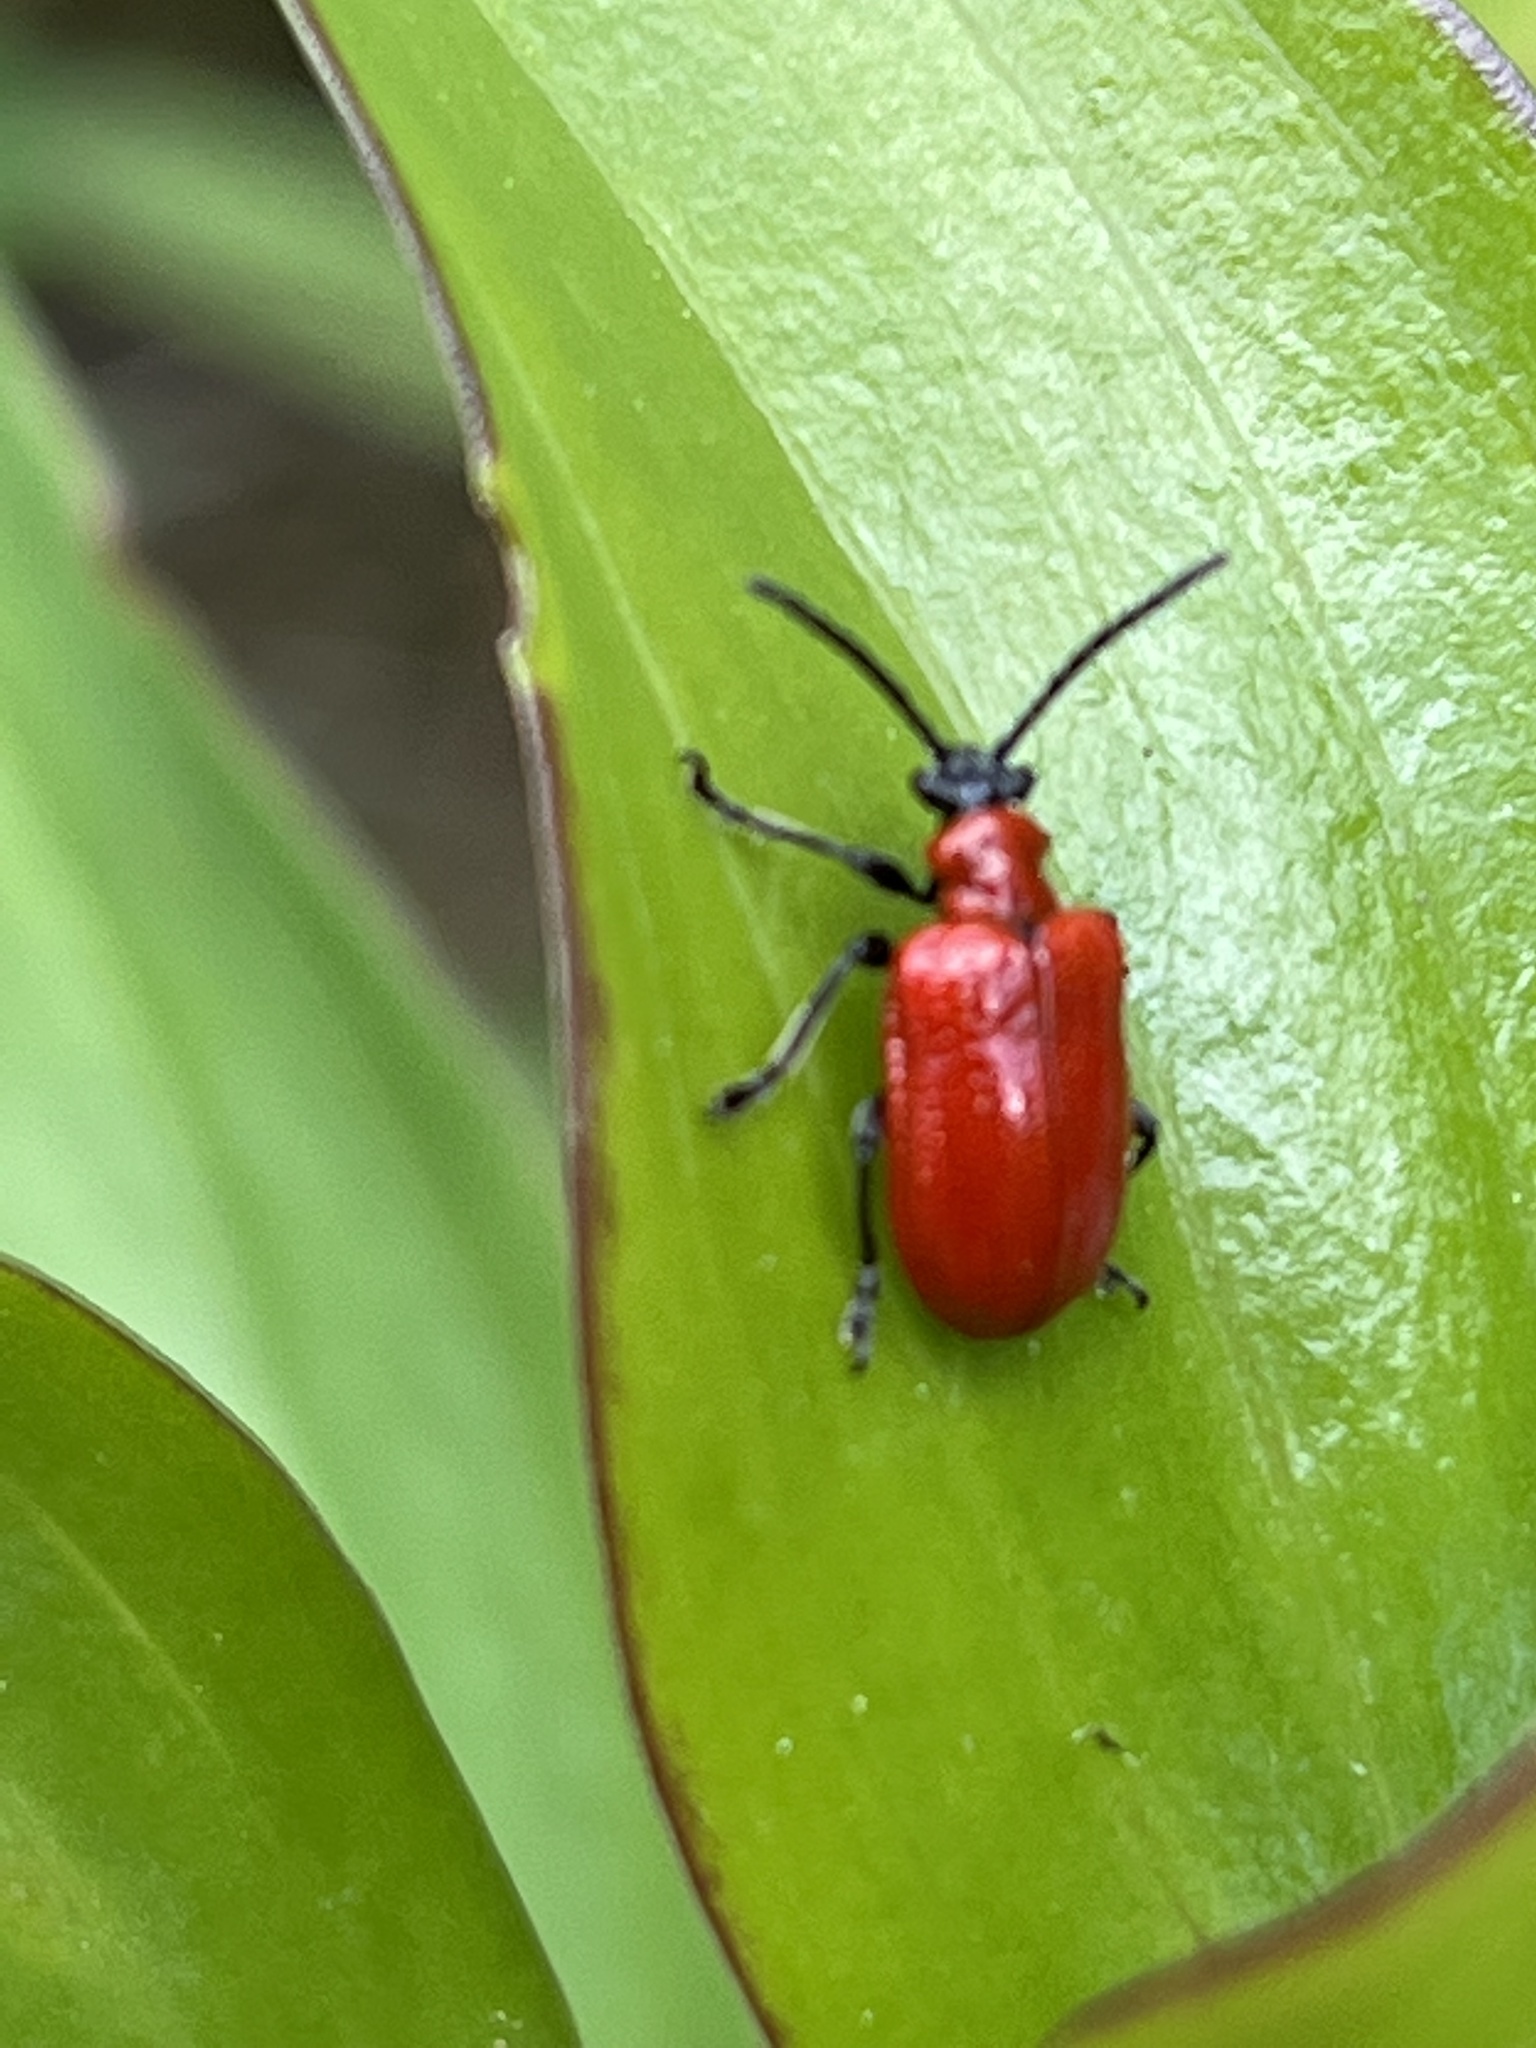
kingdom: Animalia
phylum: Arthropoda
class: Insecta
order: Coleoptera
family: Chrysomelidae
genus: Lilioceris
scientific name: Lilioceris lilii
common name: Lily beetle
